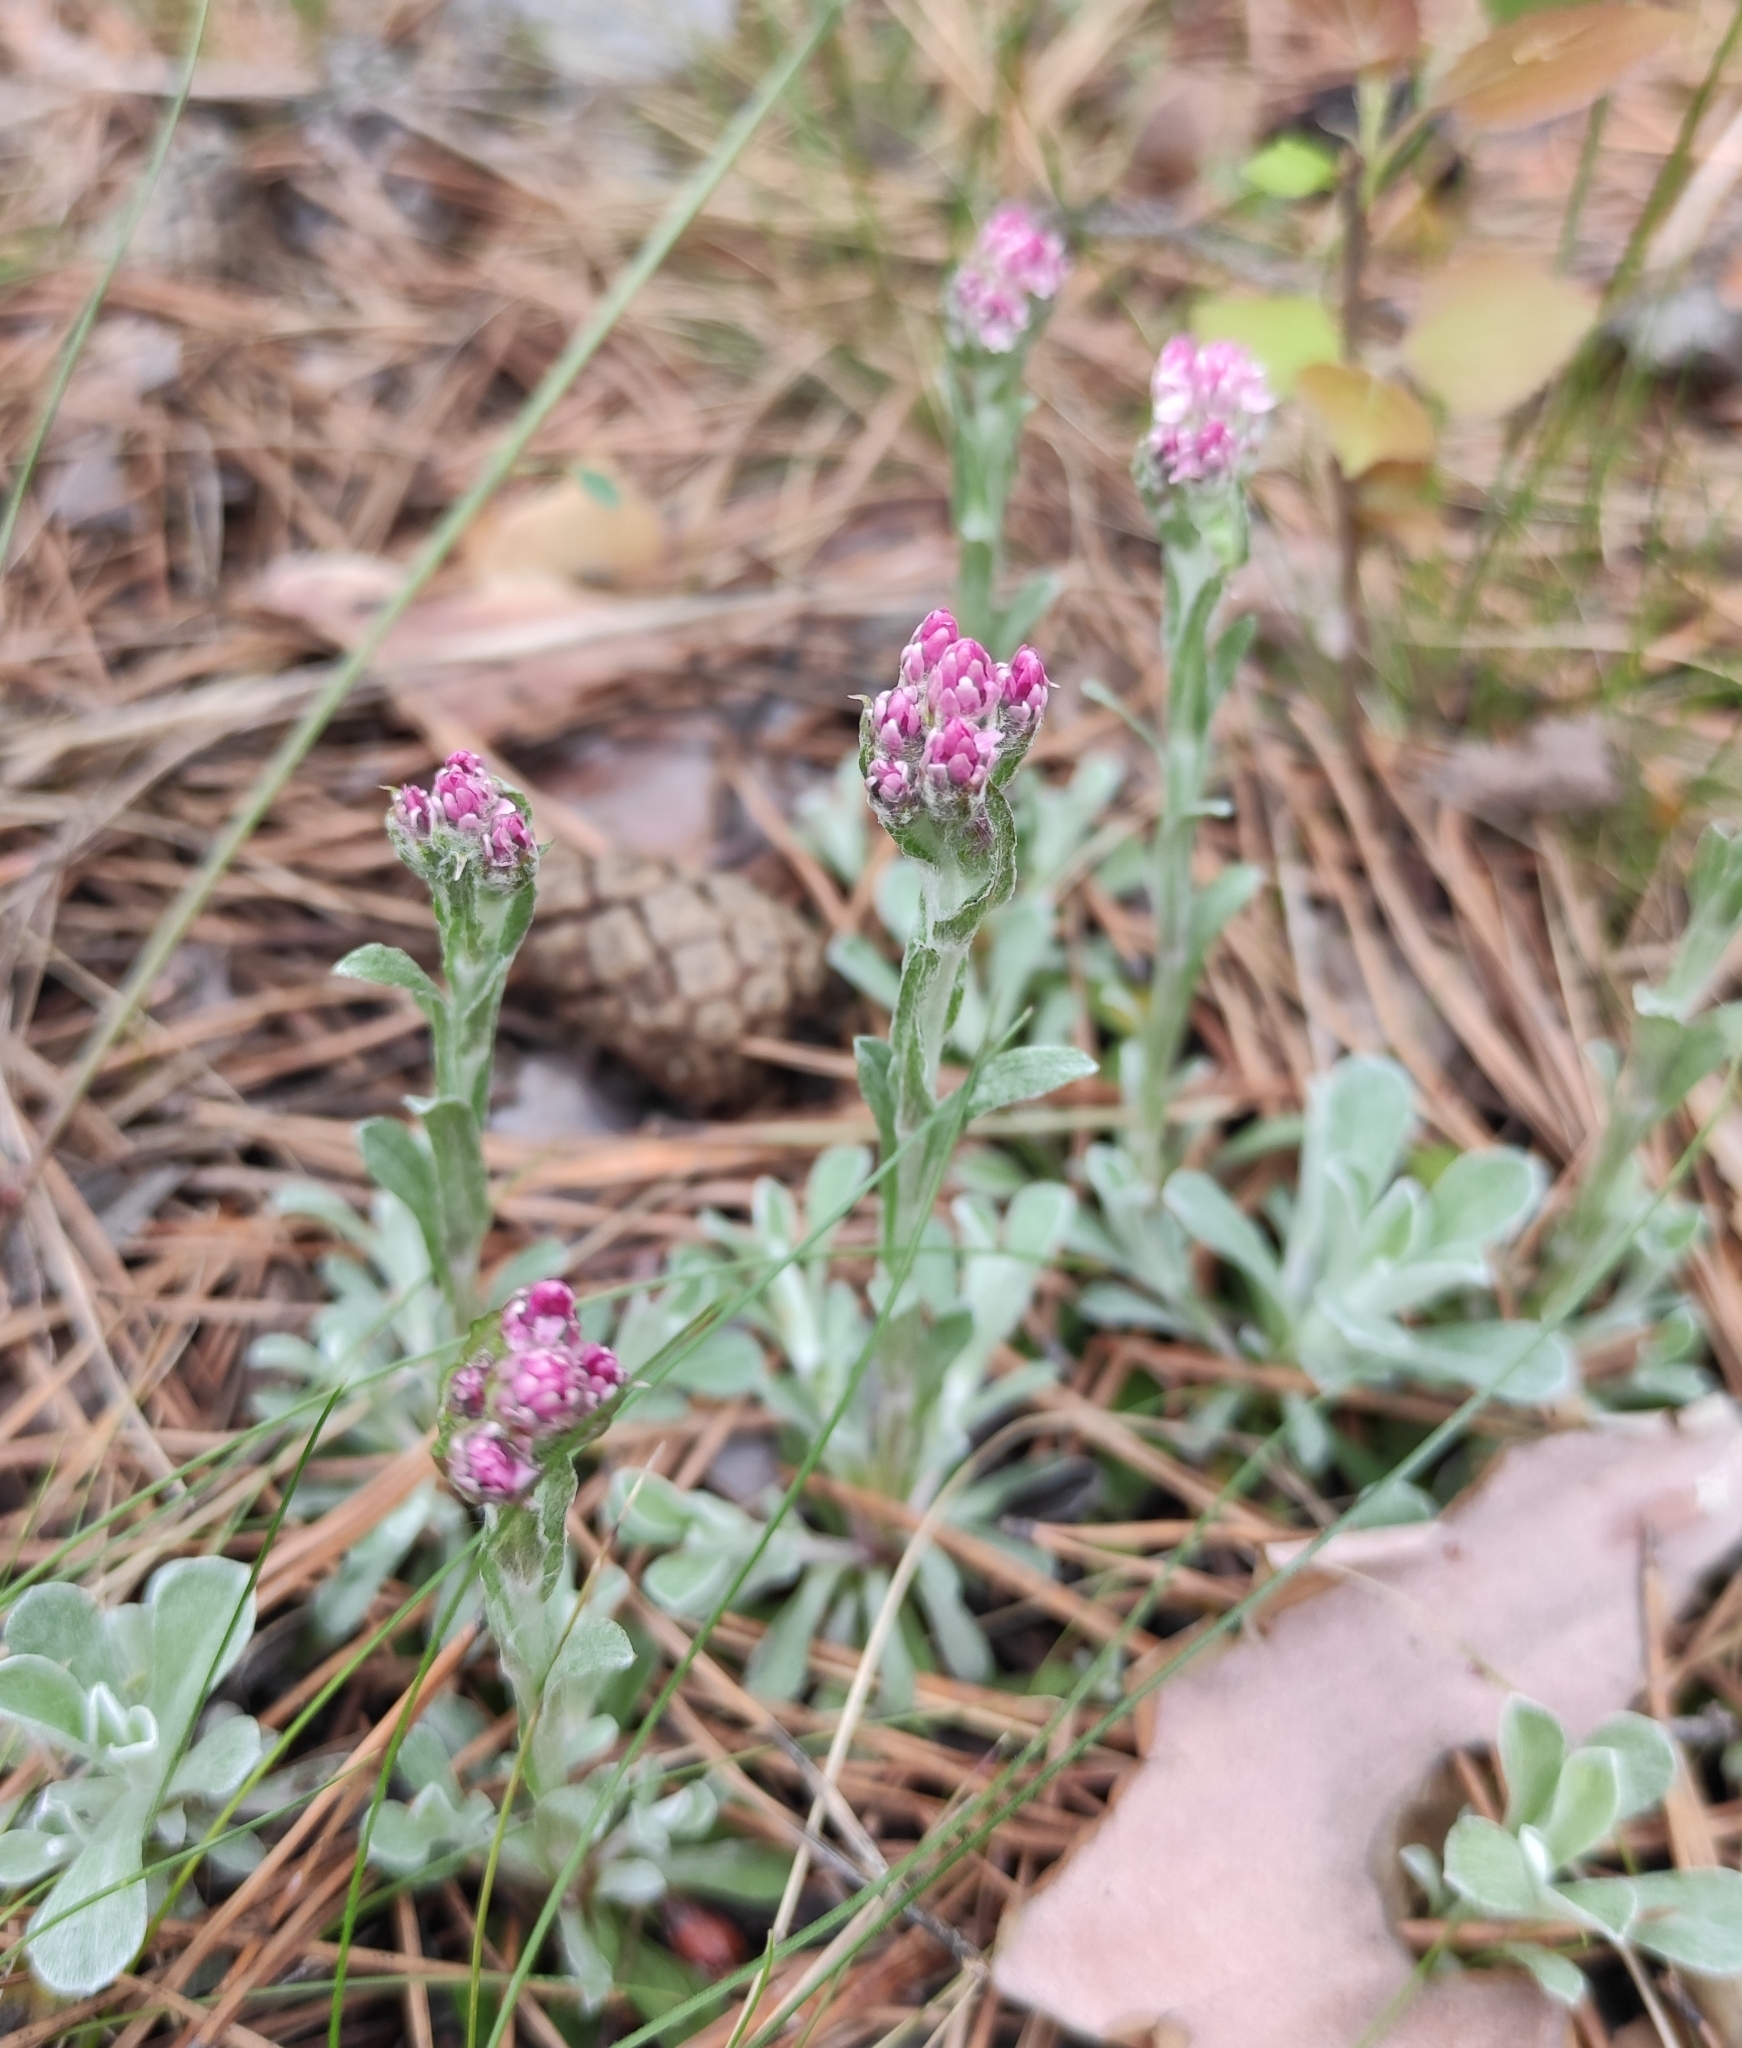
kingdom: Plantae
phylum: Tracheophyta
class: Magnoliopsida
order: Asterales
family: Asteraceae
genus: Antennaria
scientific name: Antennaria dioica
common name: Mountain everlasting
